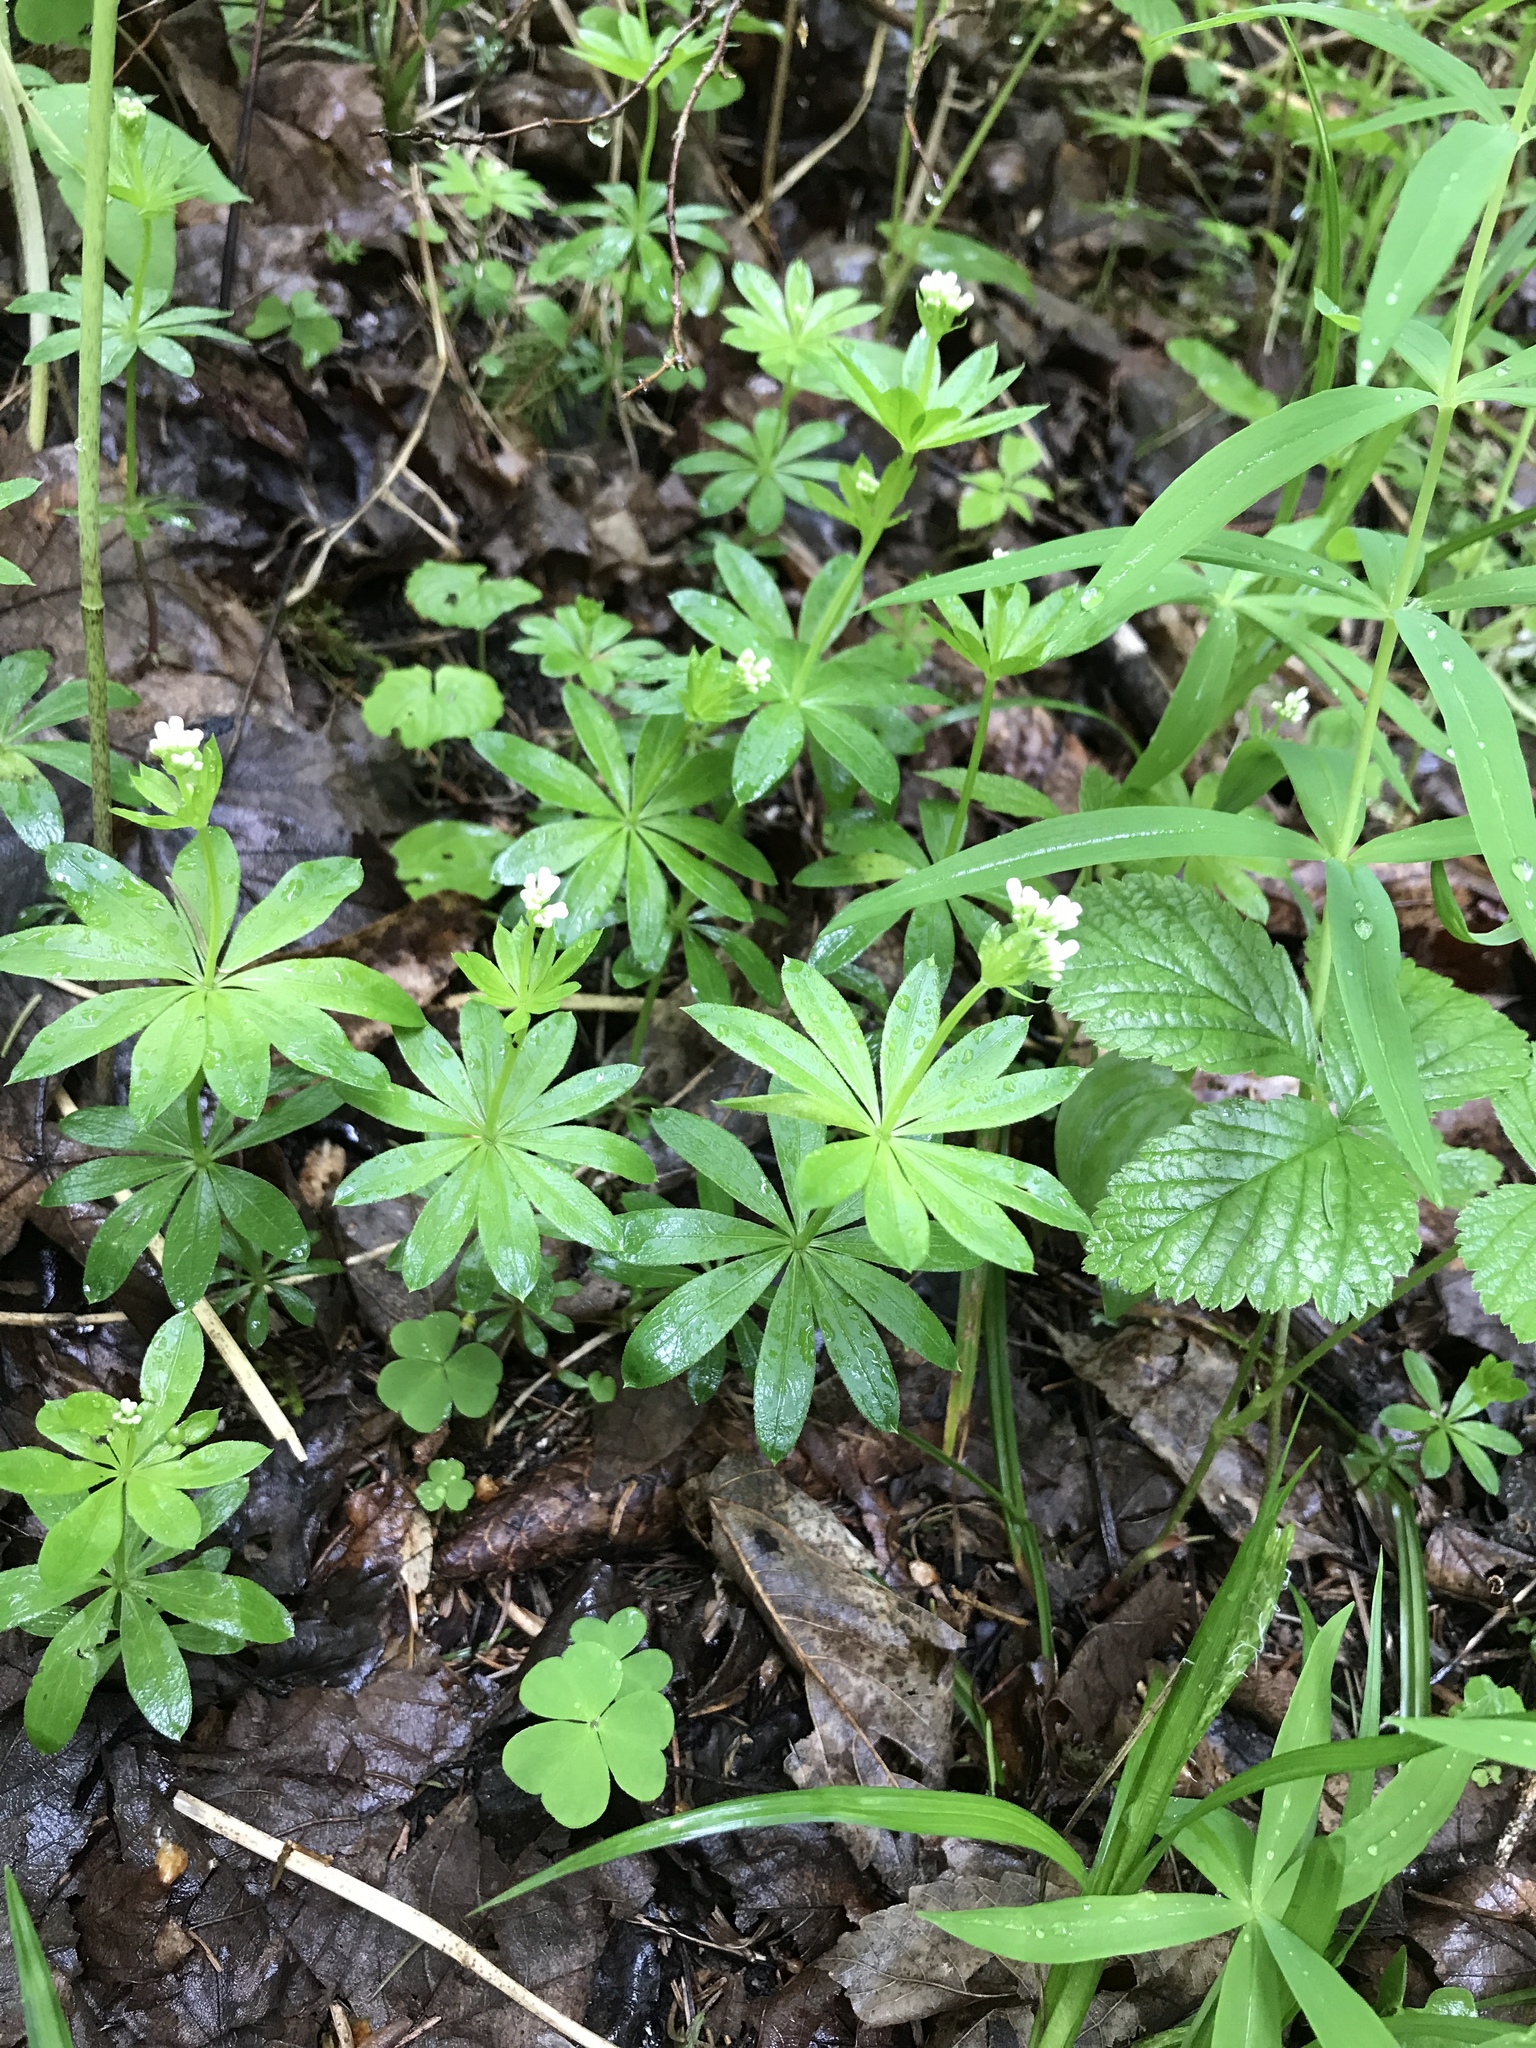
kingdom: Plantae
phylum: Tracheophyta
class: Magnoliopsida
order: Gentianales
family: Rubiaceae
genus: Galium
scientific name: Galium odoratum
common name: Sweet woodruff
